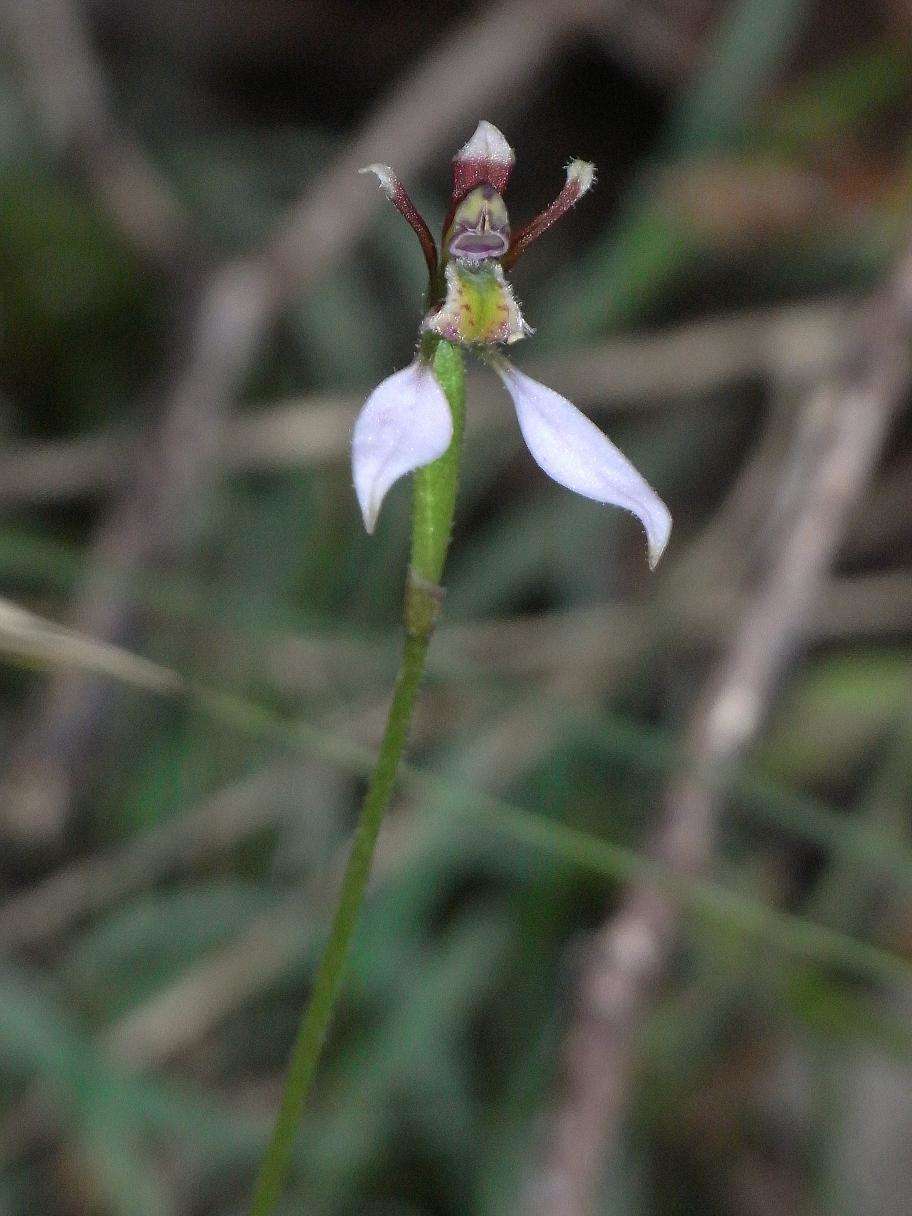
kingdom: Plantae
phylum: Tracheophyta
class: Liliopsida
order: Asparagales
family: Orchidaceae
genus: Eriochilus
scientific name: Eriochilus cucullatus
